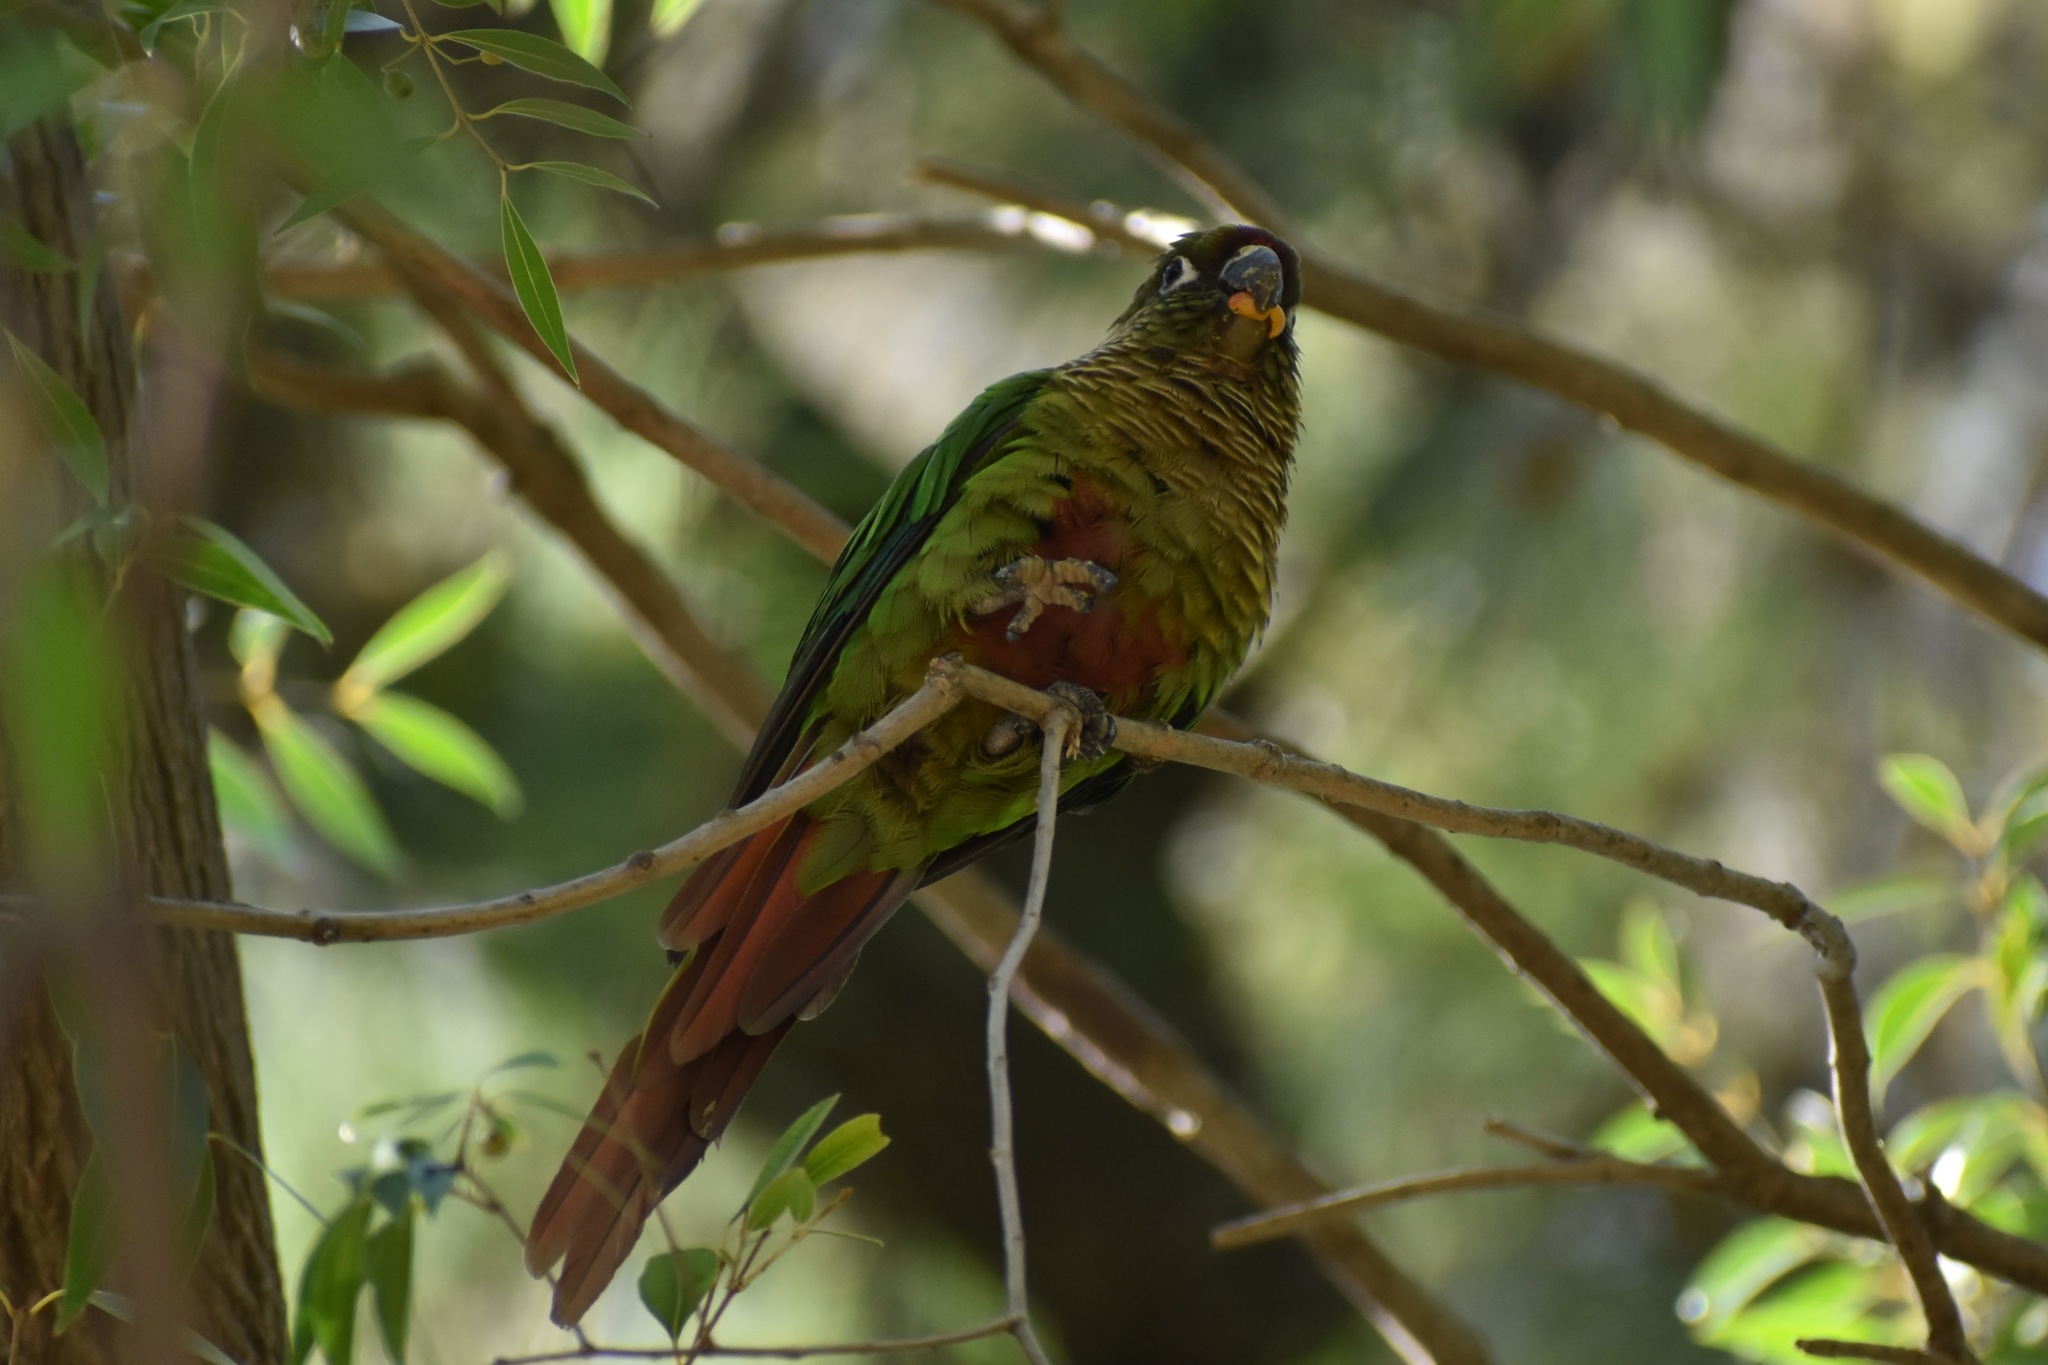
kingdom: Animalia
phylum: Chordata
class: Aves
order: Psittaciformes
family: Psittacidae
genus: Pyrrhura
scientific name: Pyrrhura frontalis
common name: Maroon-bellied parakeet
